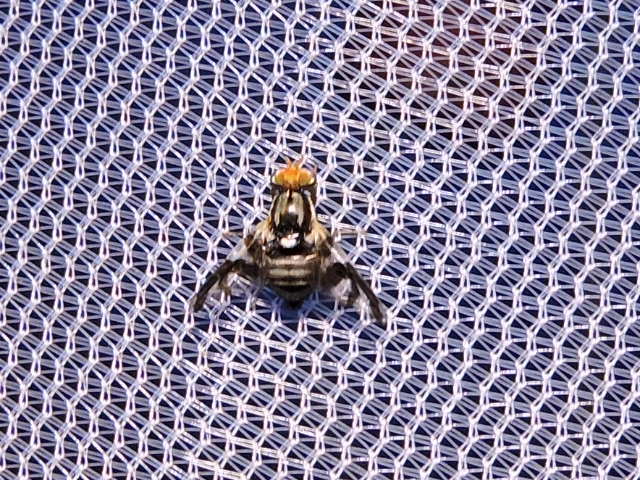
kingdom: Animalia
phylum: Arthropoda
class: Insecta
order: Diptera
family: Tephritidae
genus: Rhagoletis
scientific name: Rhagoletis pomonella
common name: Apple maggot
